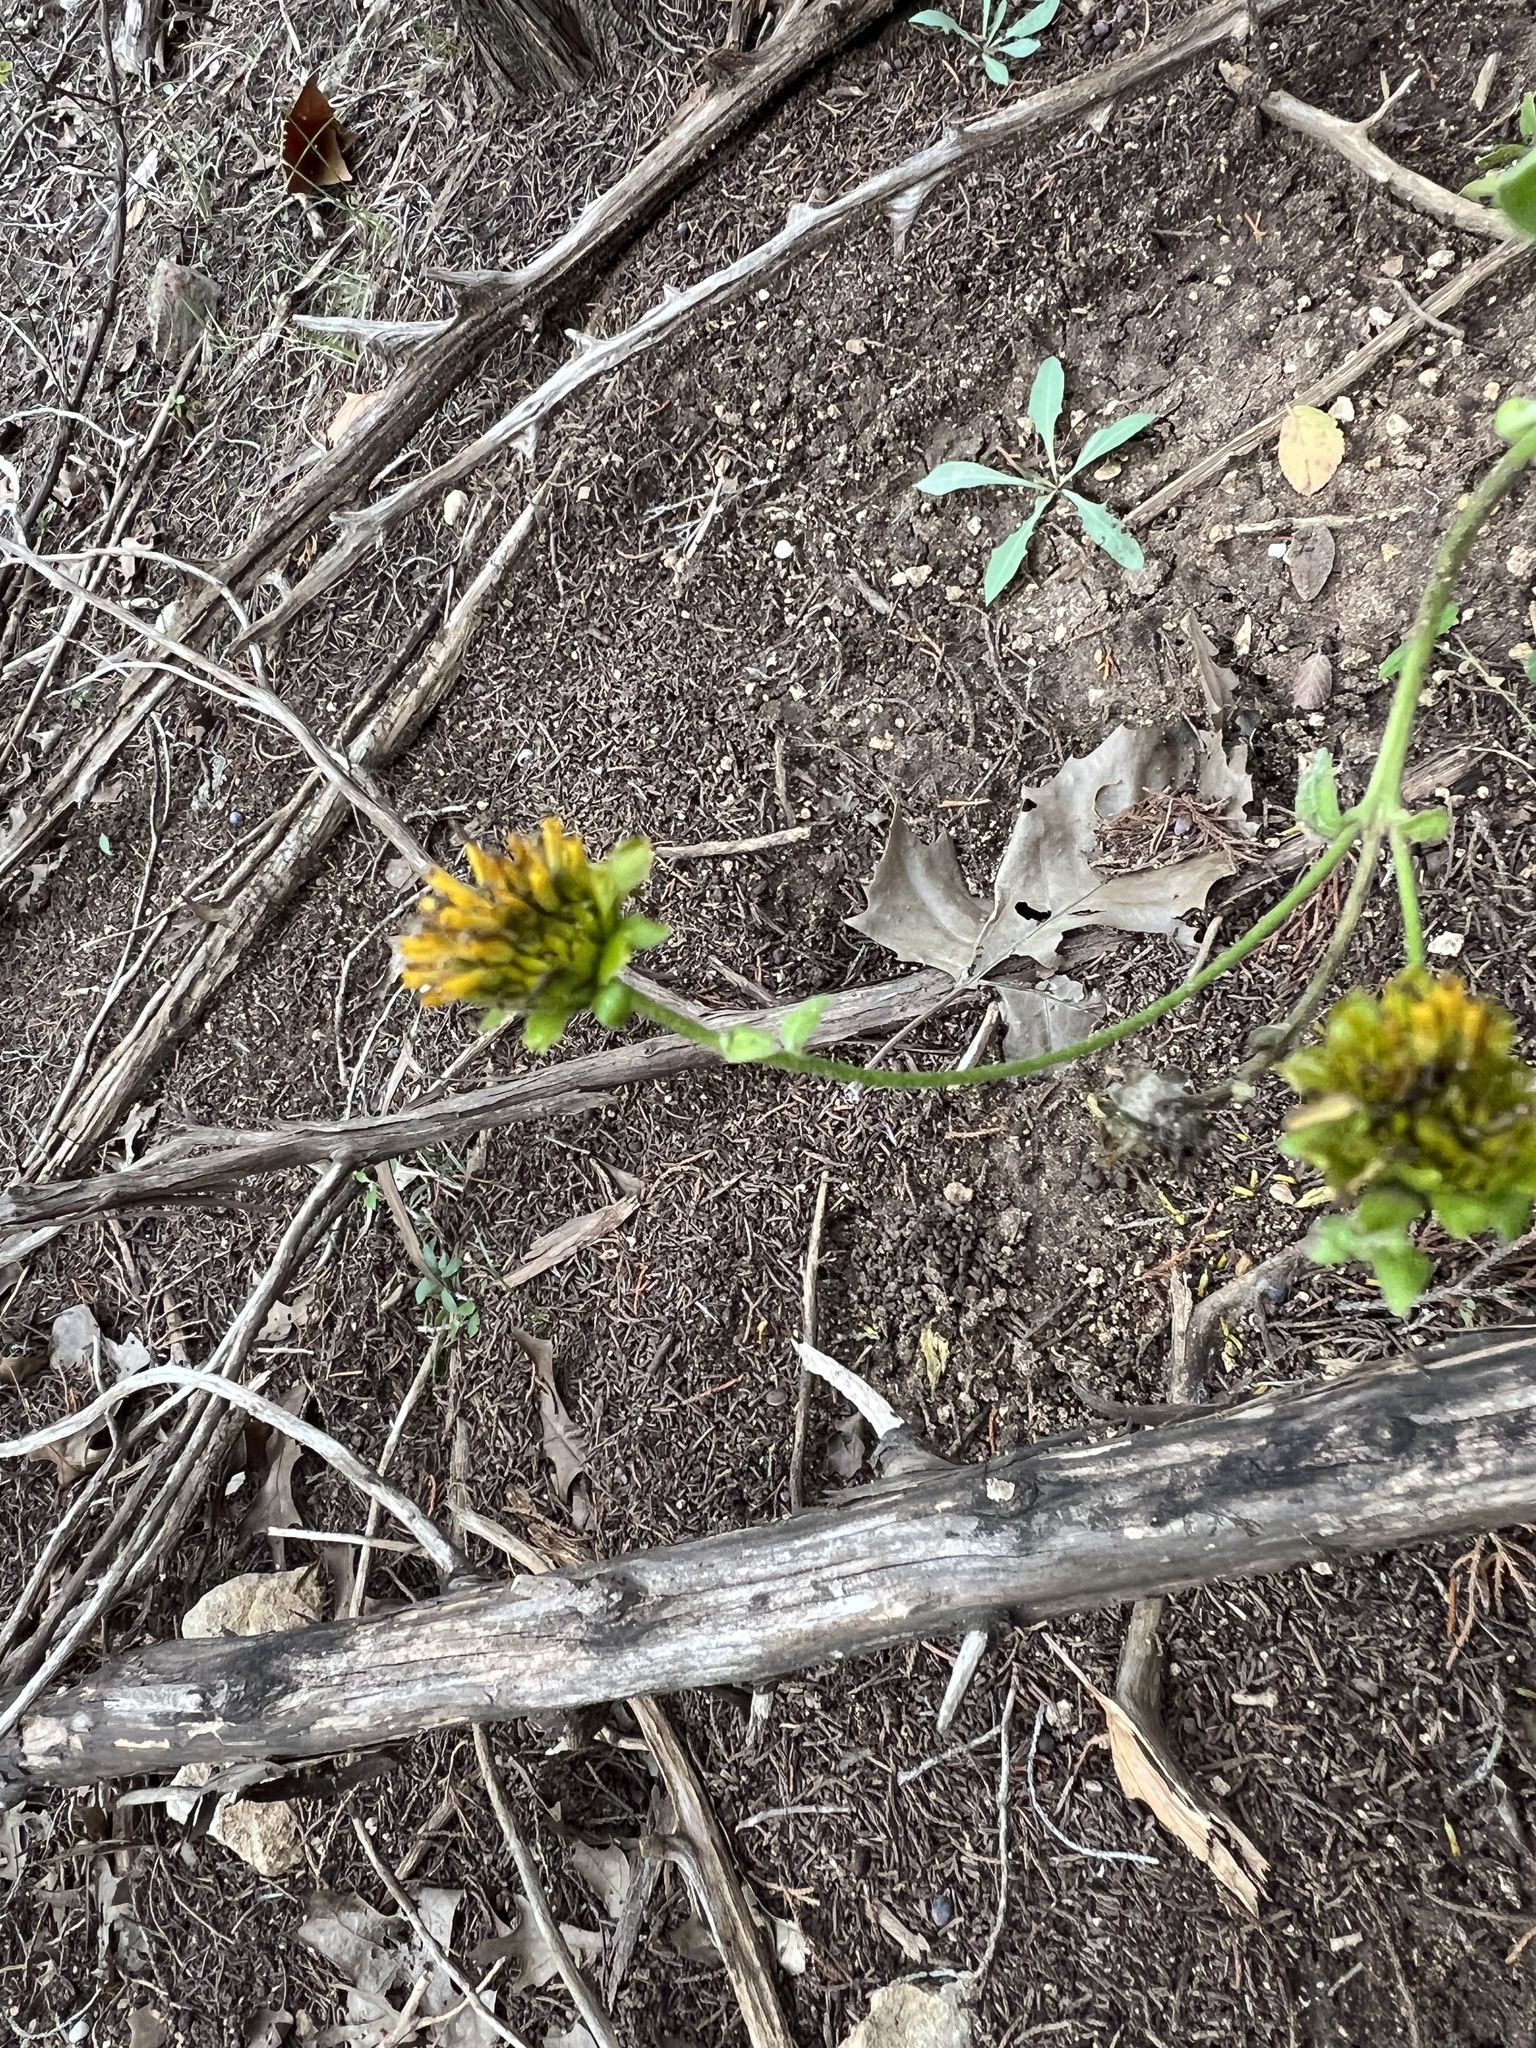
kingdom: Plantae
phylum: Tracheophyta
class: Magnoliopsida
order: Asterales
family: Asteraceae
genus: Verbesina
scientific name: Verbesina lindheimeri
